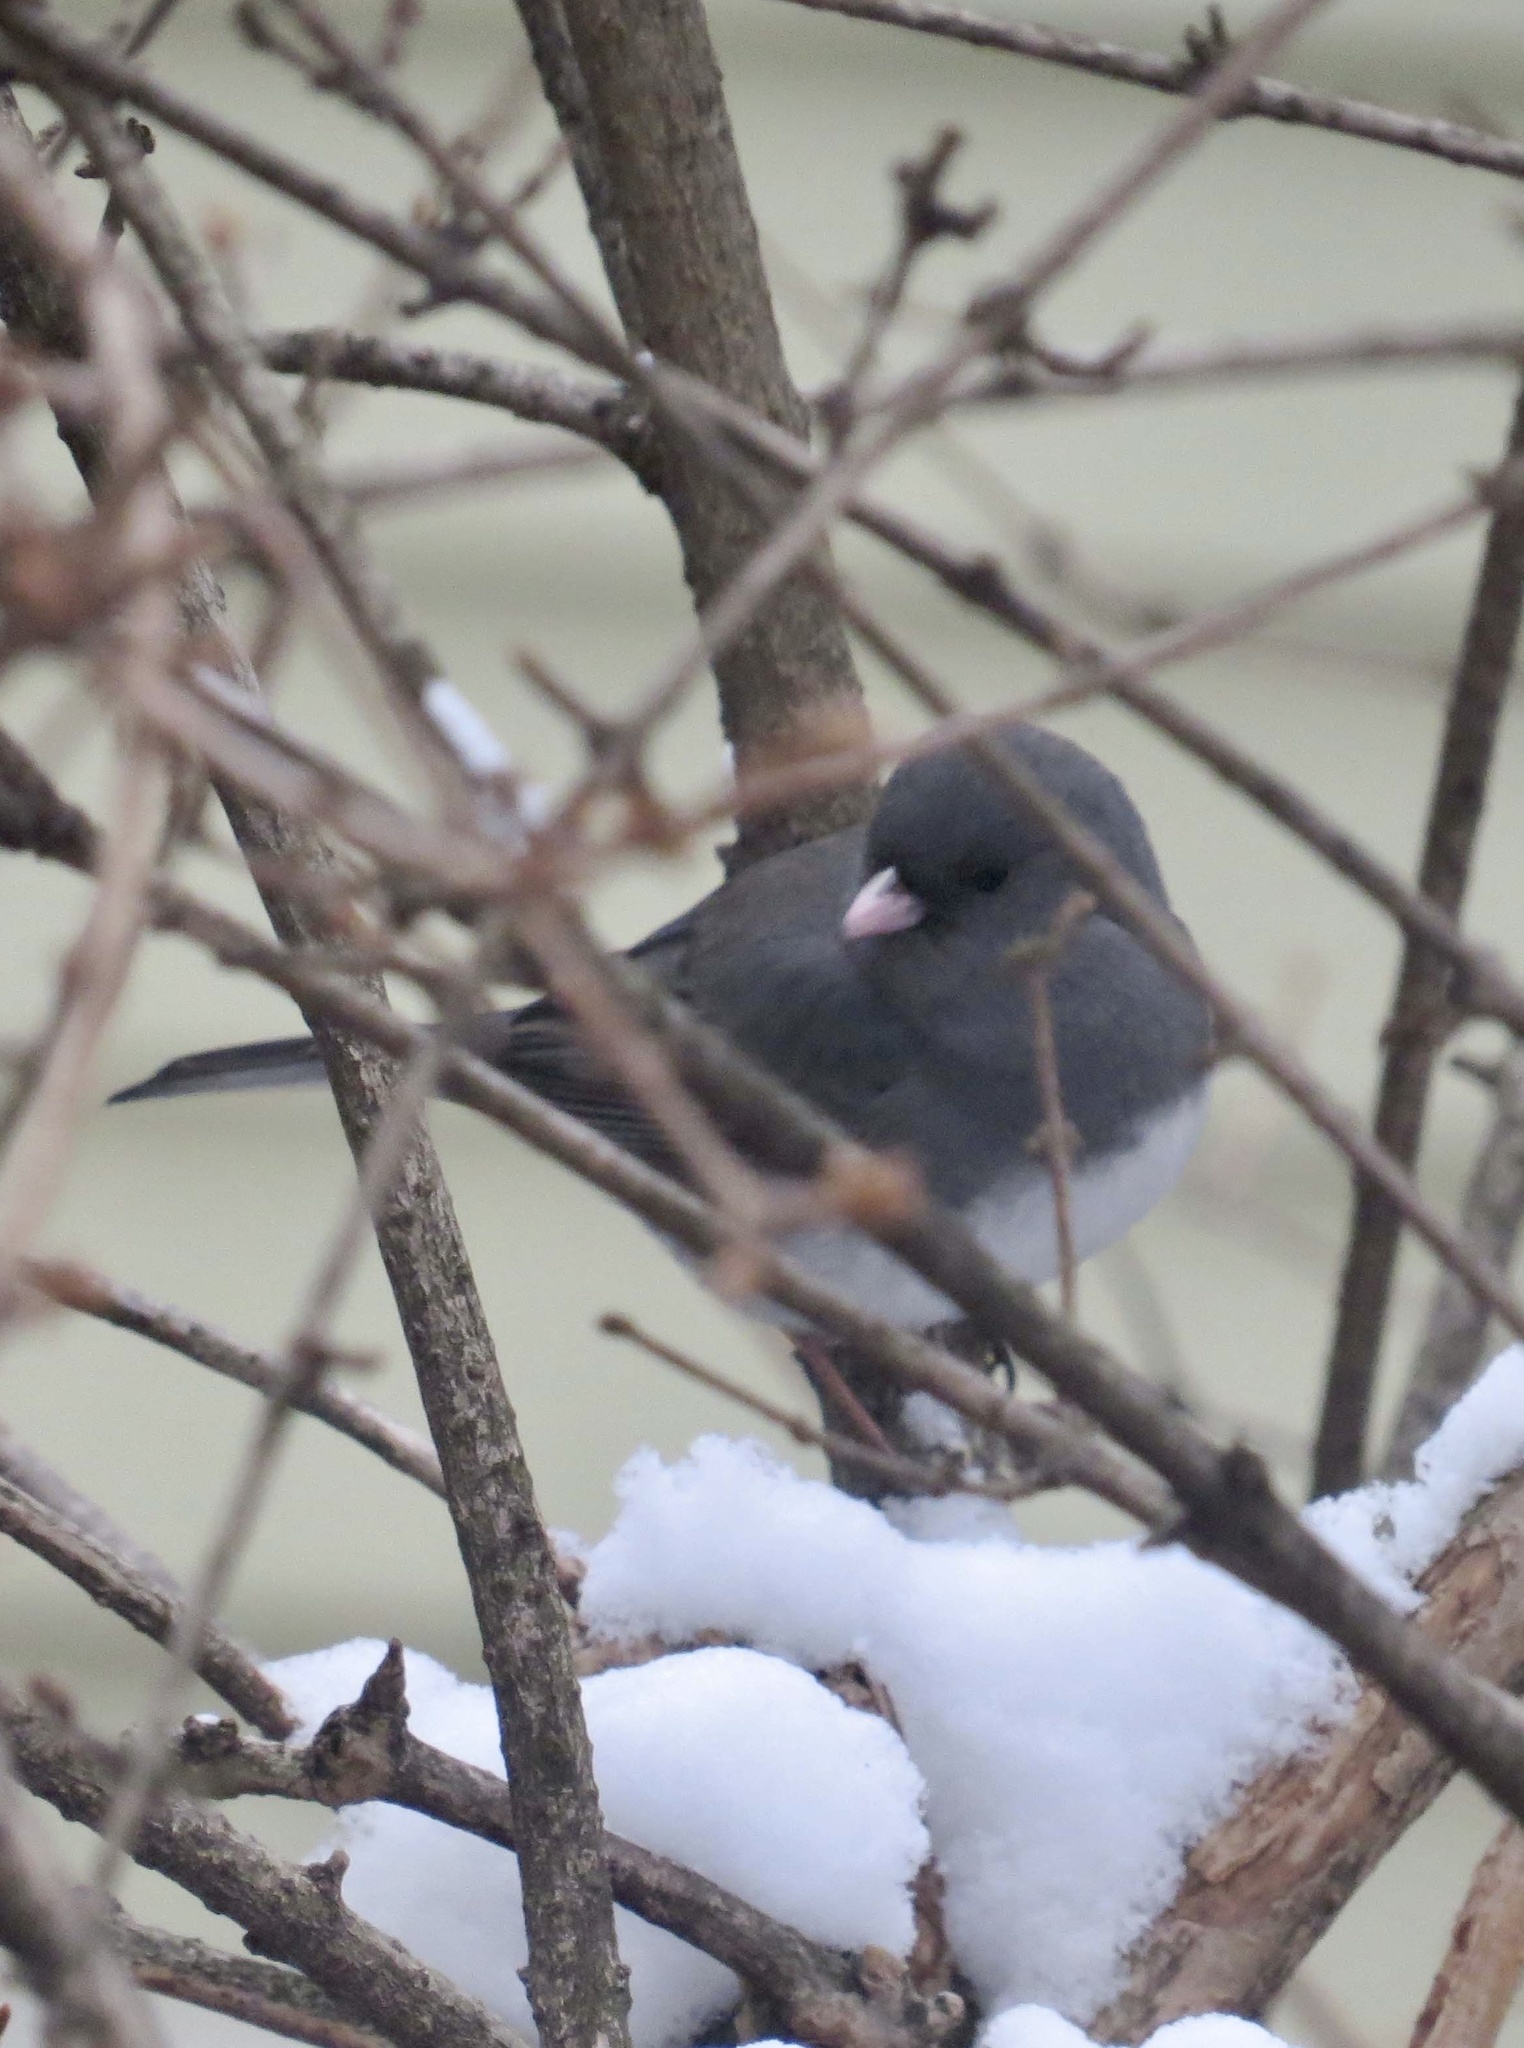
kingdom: Animalia
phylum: Chordata
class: Aves
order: Passeriformes
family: Passerellidae
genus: Junco
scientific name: Junco hyemalis
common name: Dark-eyed junco
